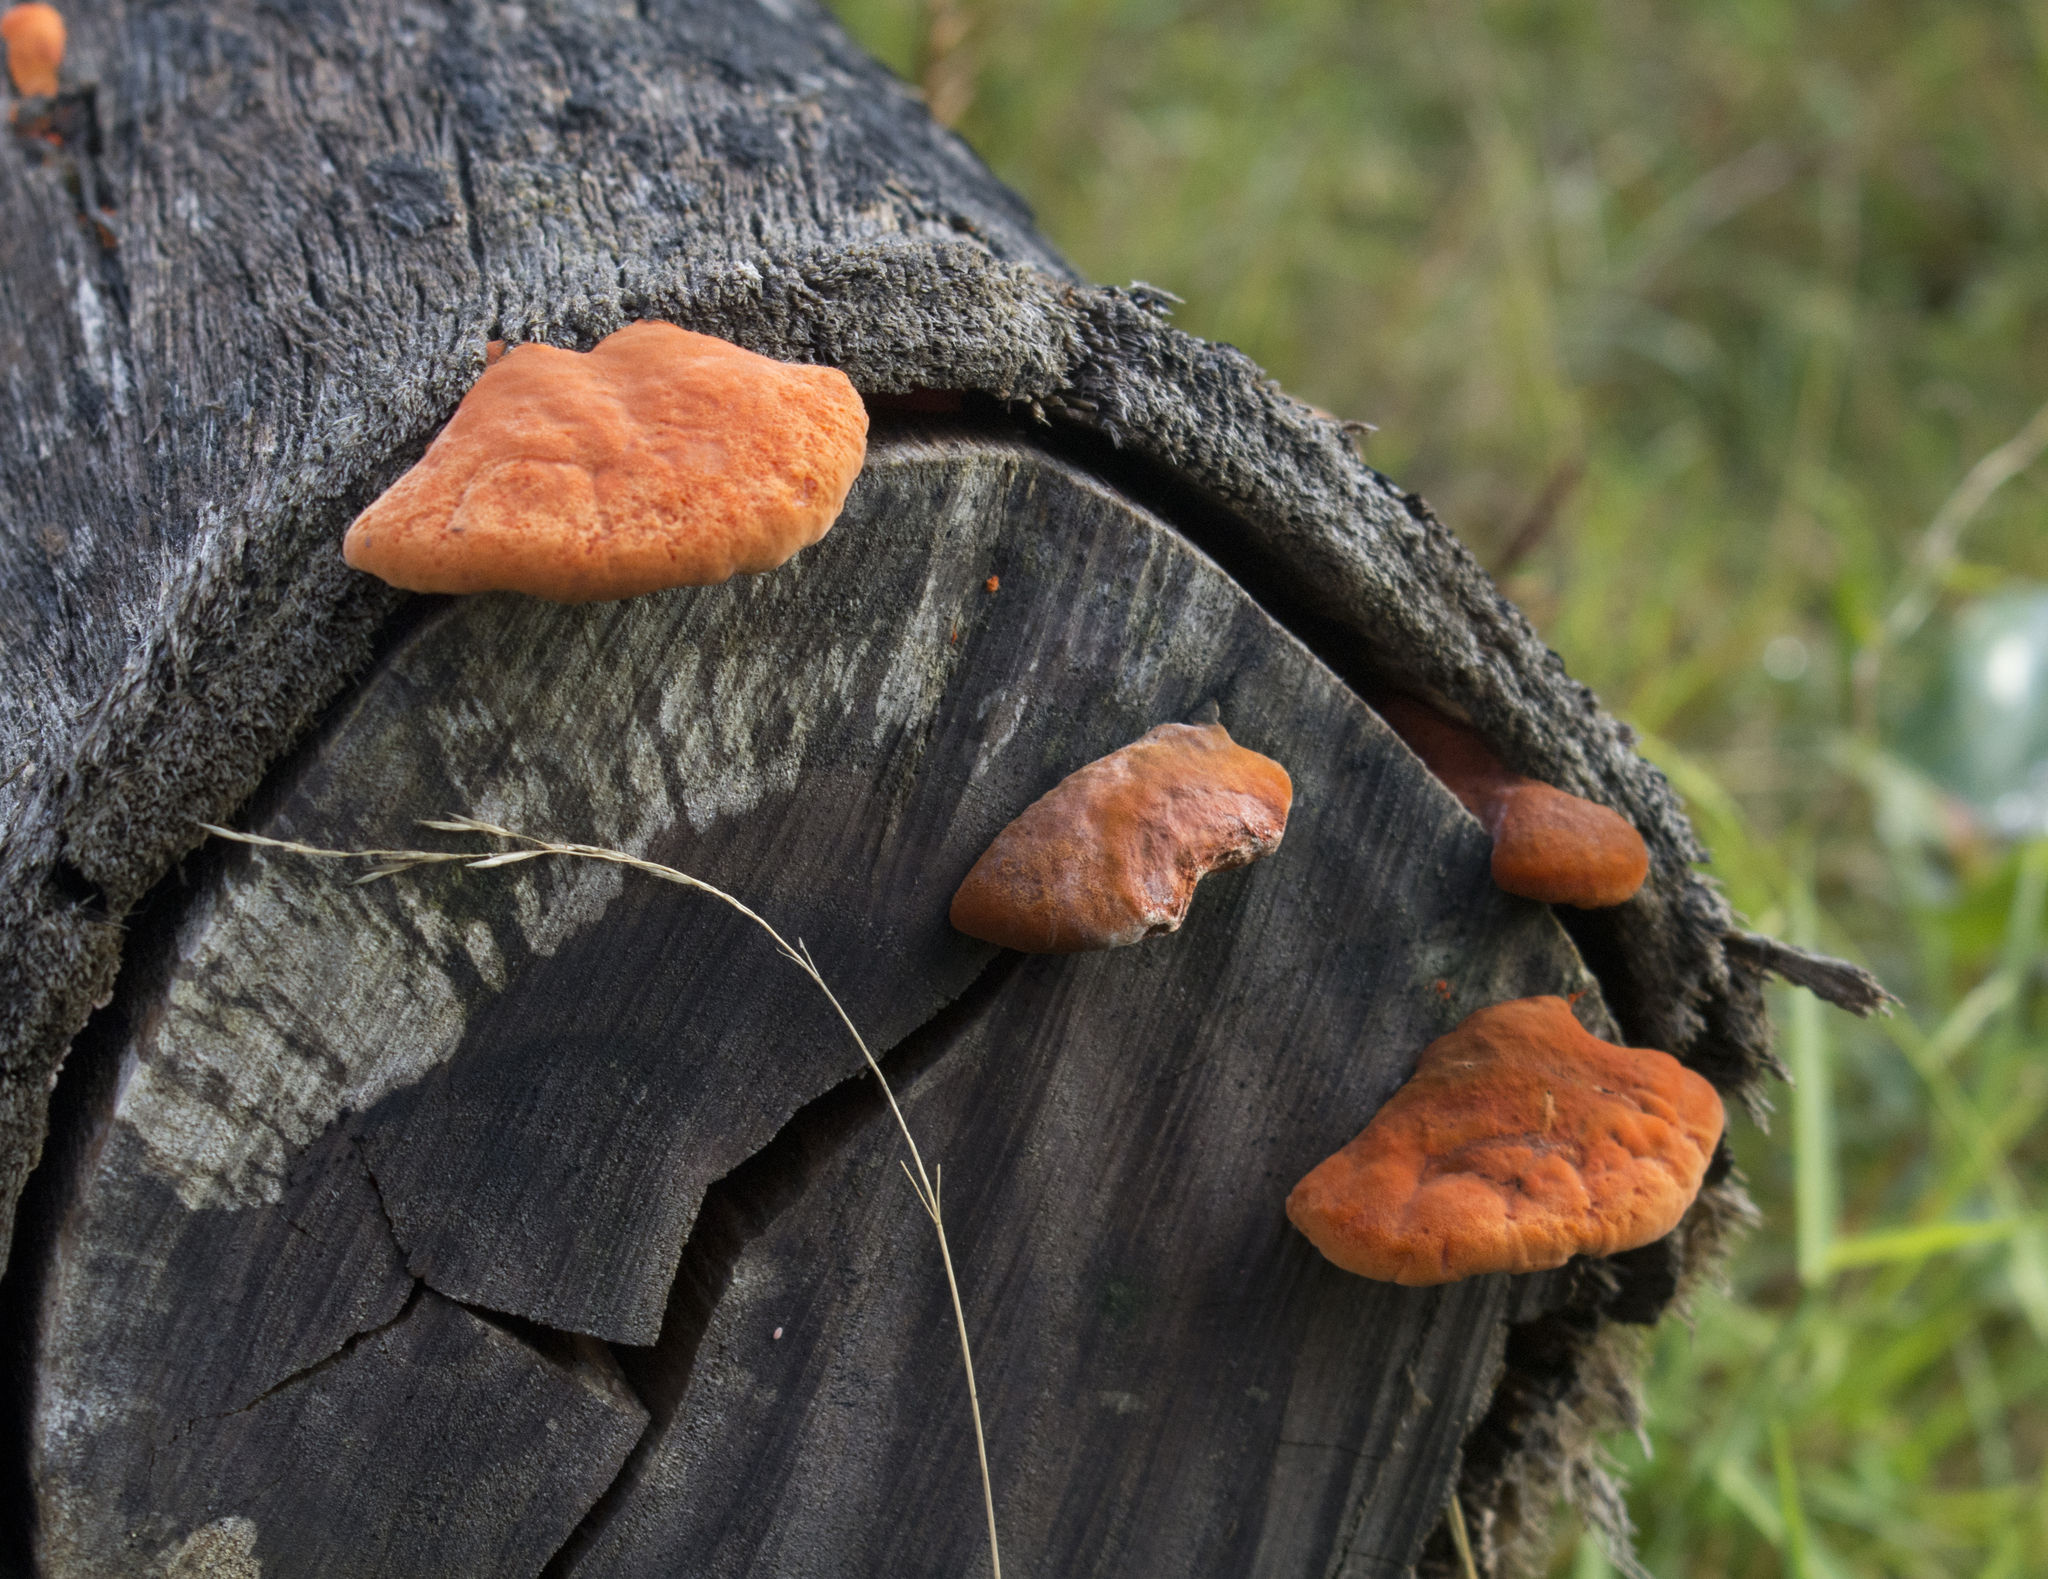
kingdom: Fungi
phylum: Basidiomycota
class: Agaricomycetes
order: Polyporales
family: Polyporaceae
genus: Trametes
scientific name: Trametes coccinea
